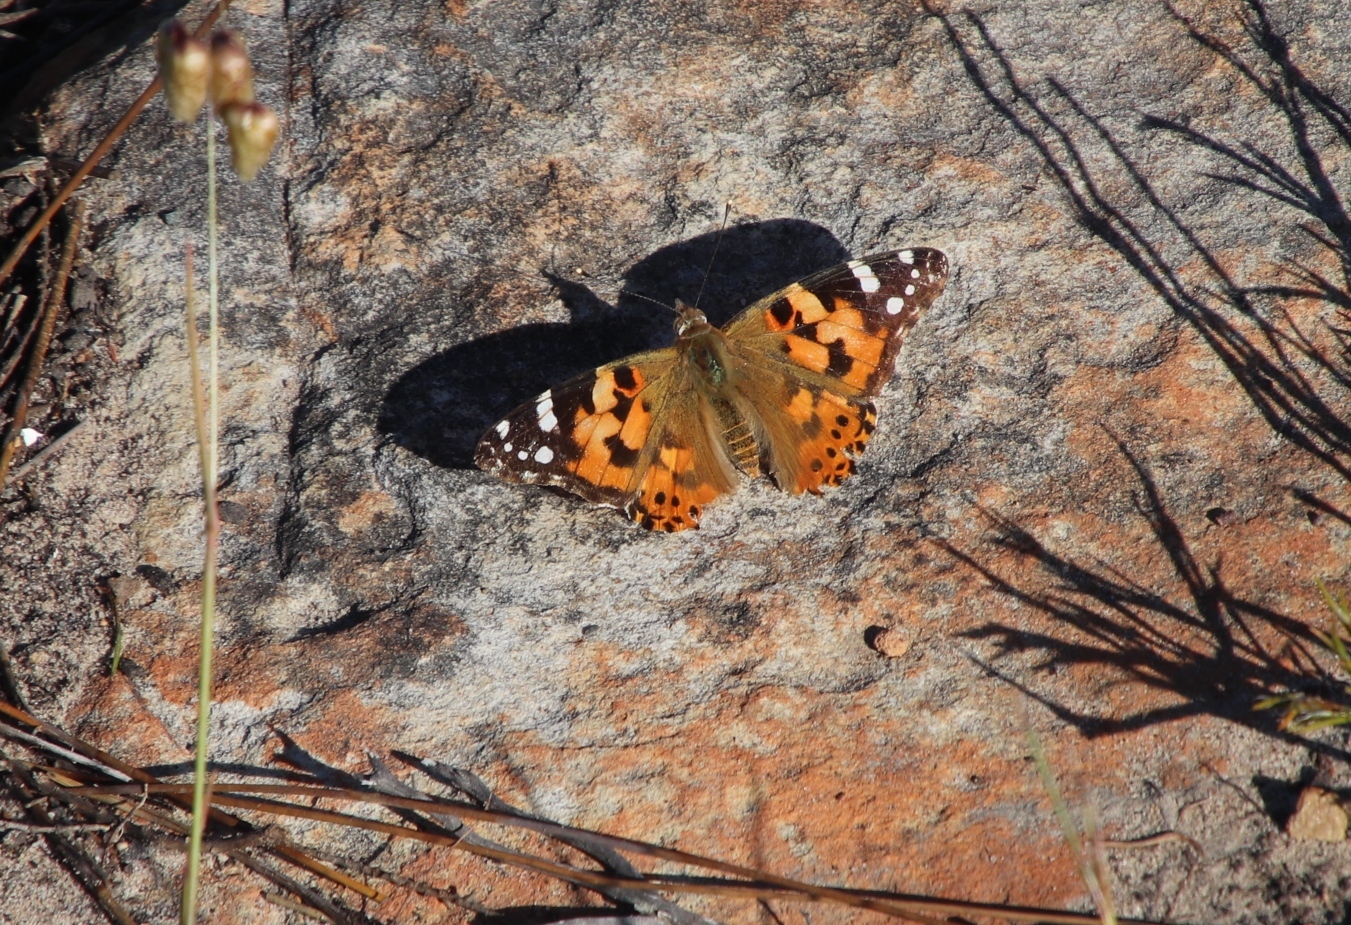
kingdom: Animalia
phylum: Arthropoda
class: Insecta
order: Lepidoptera
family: Nymphalidae
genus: Vanessa
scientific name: Vanessa cardui
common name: Painted lady
